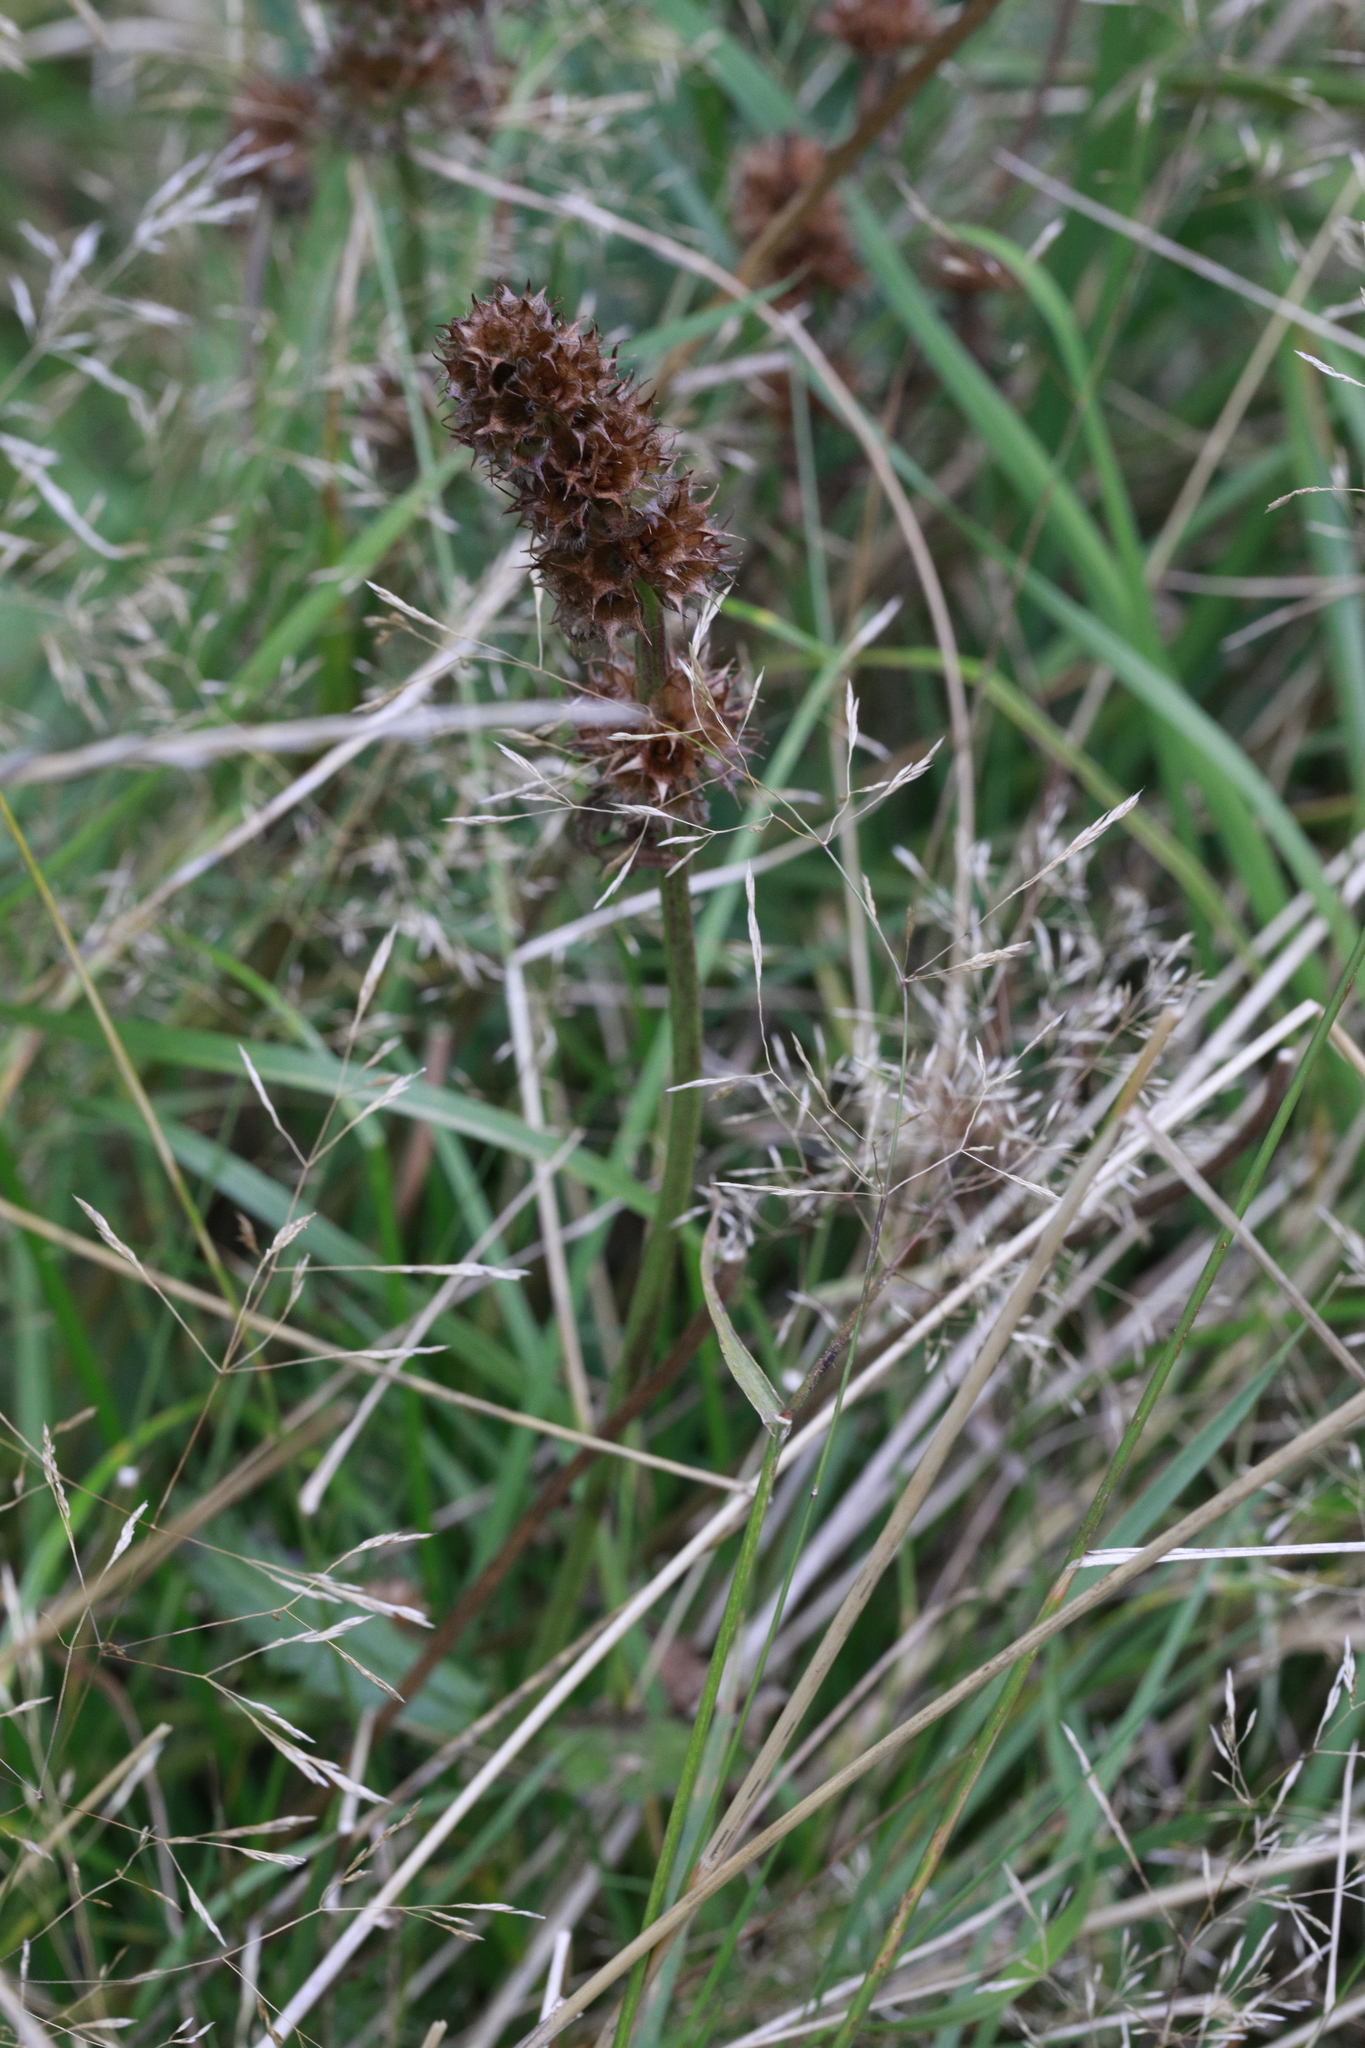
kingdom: Plantae
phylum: Tracheophyta
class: Magnoliopsida
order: Lamiales
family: Lamiaceae
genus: Betonica
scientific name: Betonica officinalis
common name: Bishop's-wort
